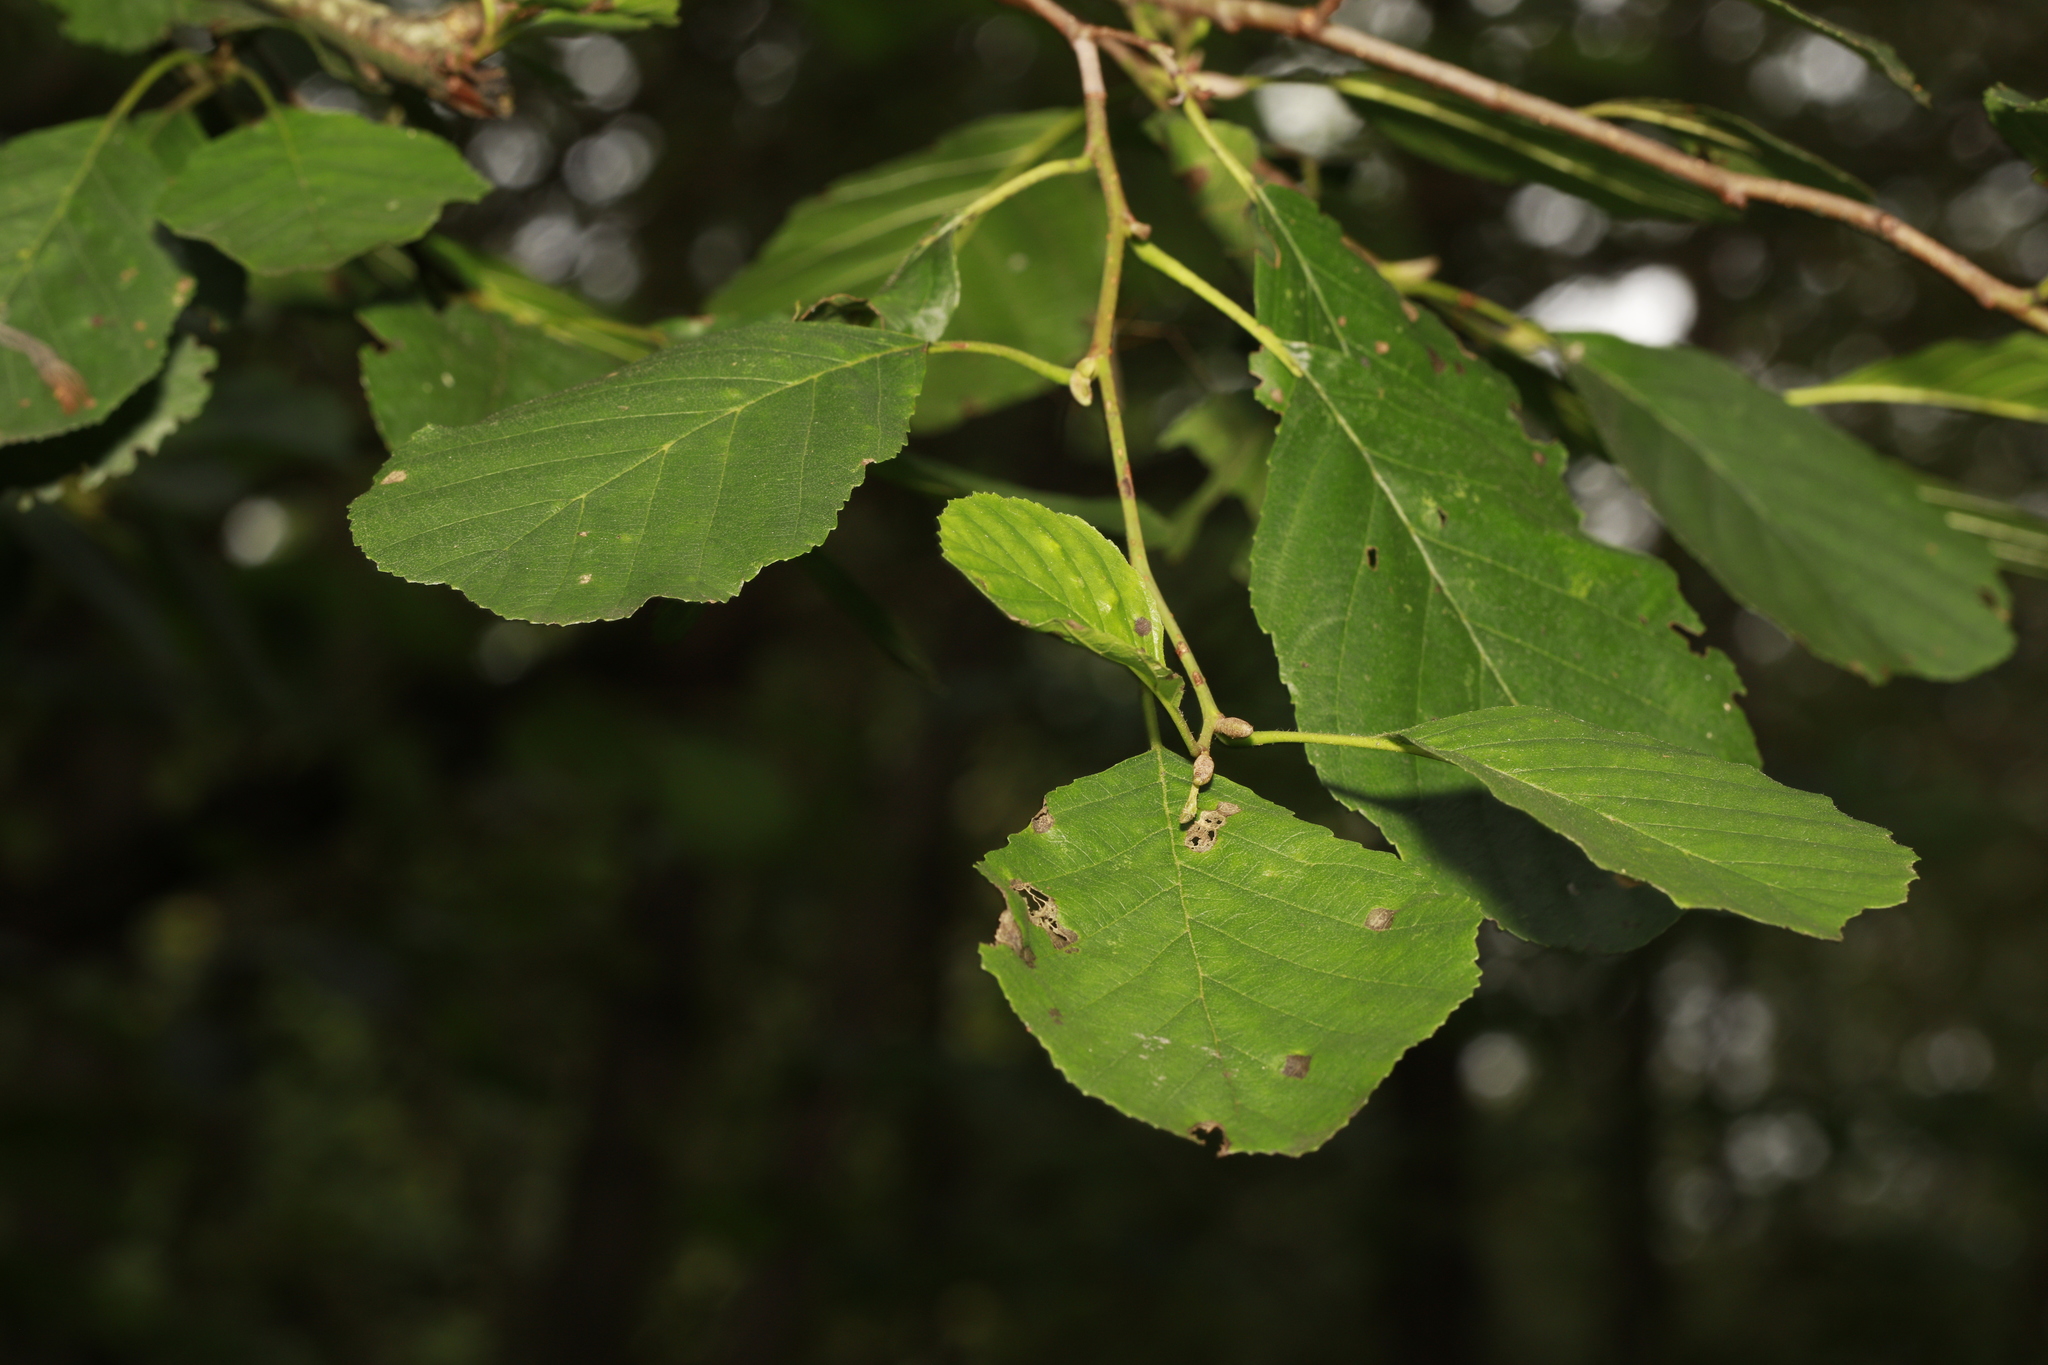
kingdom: Plantae
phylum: Tracheophyta
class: Magnoliopsida
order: Fagales
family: Betulaceae
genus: Alnus
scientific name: Alnus glutinosa
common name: Black alder
